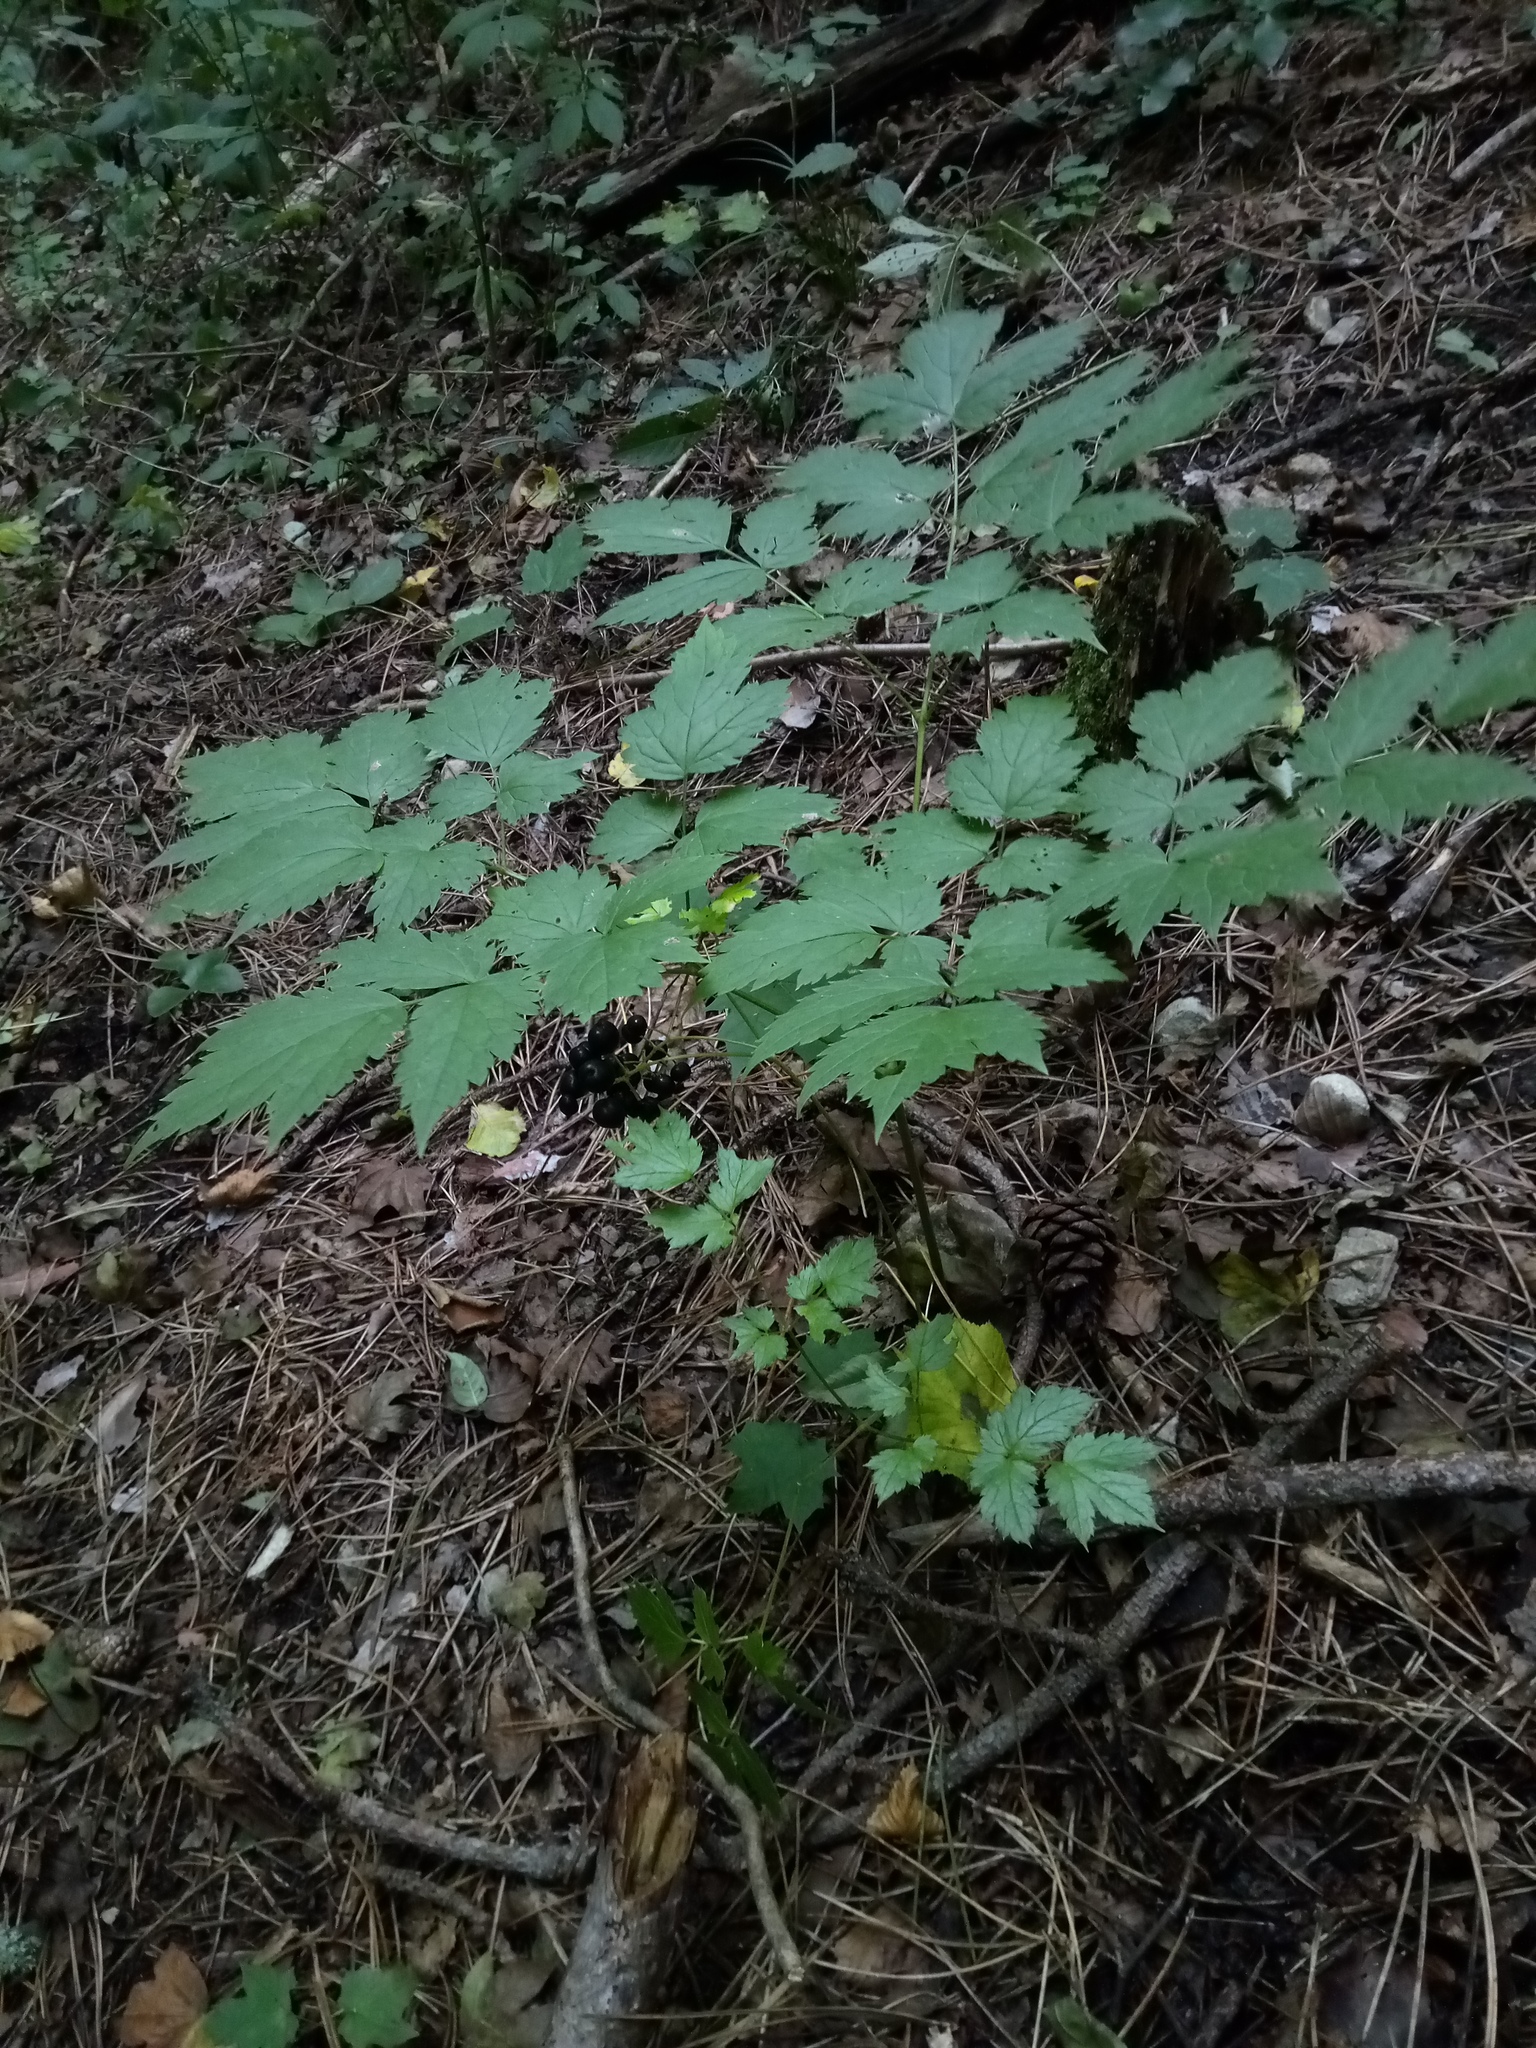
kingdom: Plantae
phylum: Tracheophyta
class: Magnoliopsida
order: Ranunculales
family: Ranunculaceae
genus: Actaea
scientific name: Actaea spicata
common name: Baneberry
